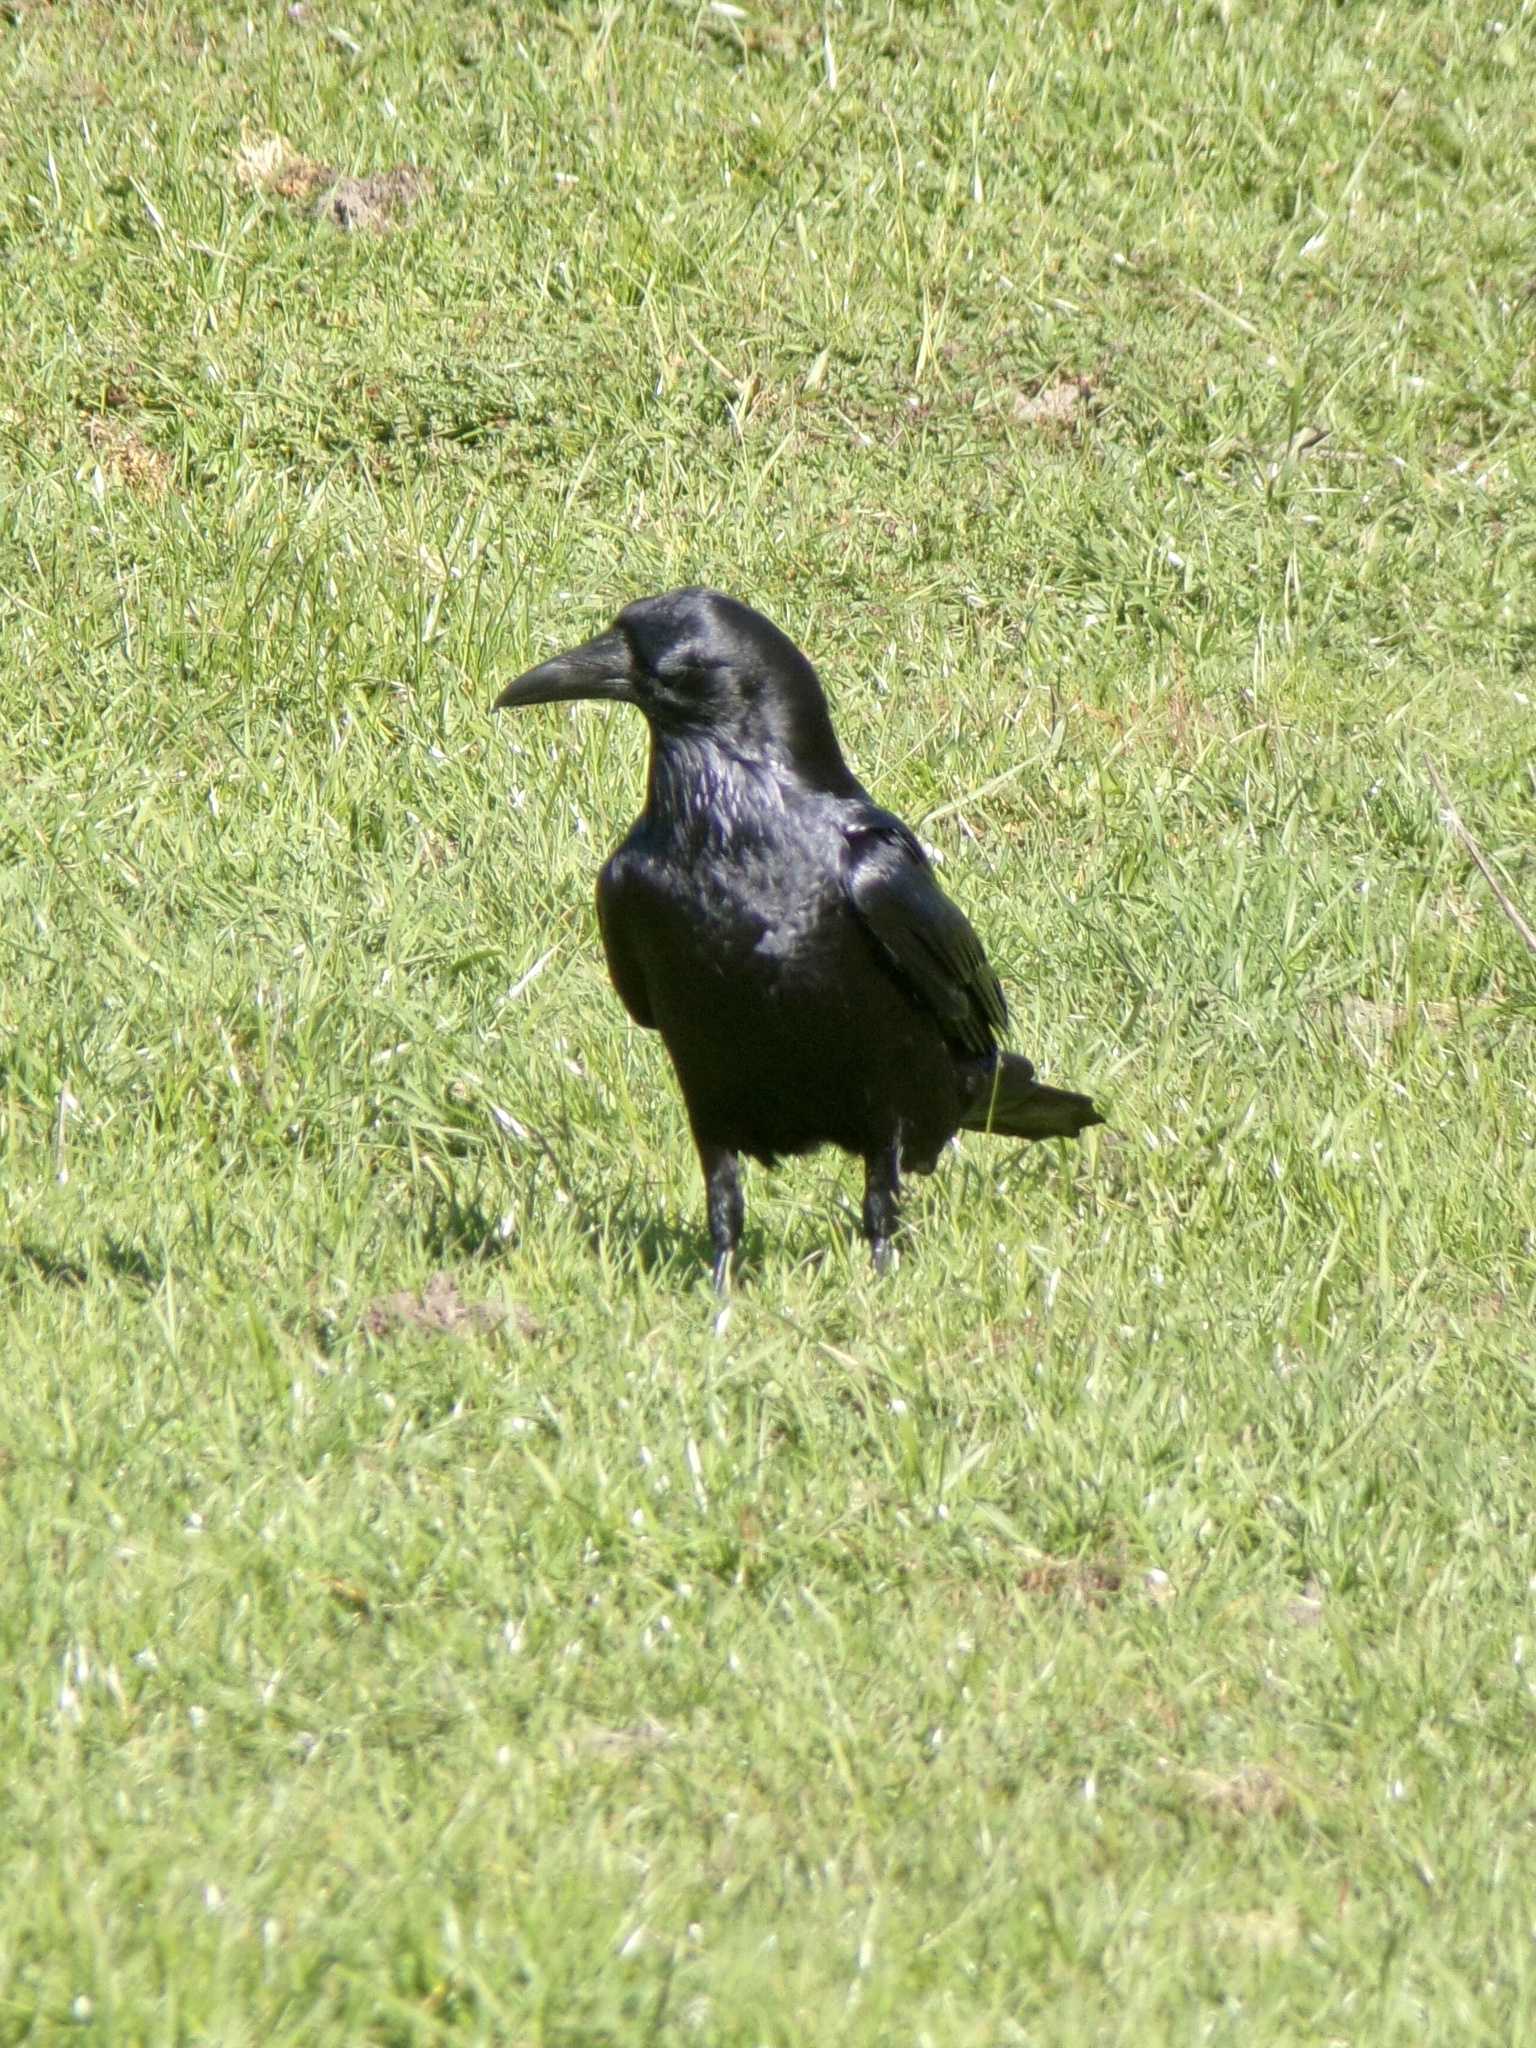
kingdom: Animalia
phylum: Chordata
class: Aves
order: Passeriformes
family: Corvidae
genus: Corvus
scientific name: Corvus corax
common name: Common raven
